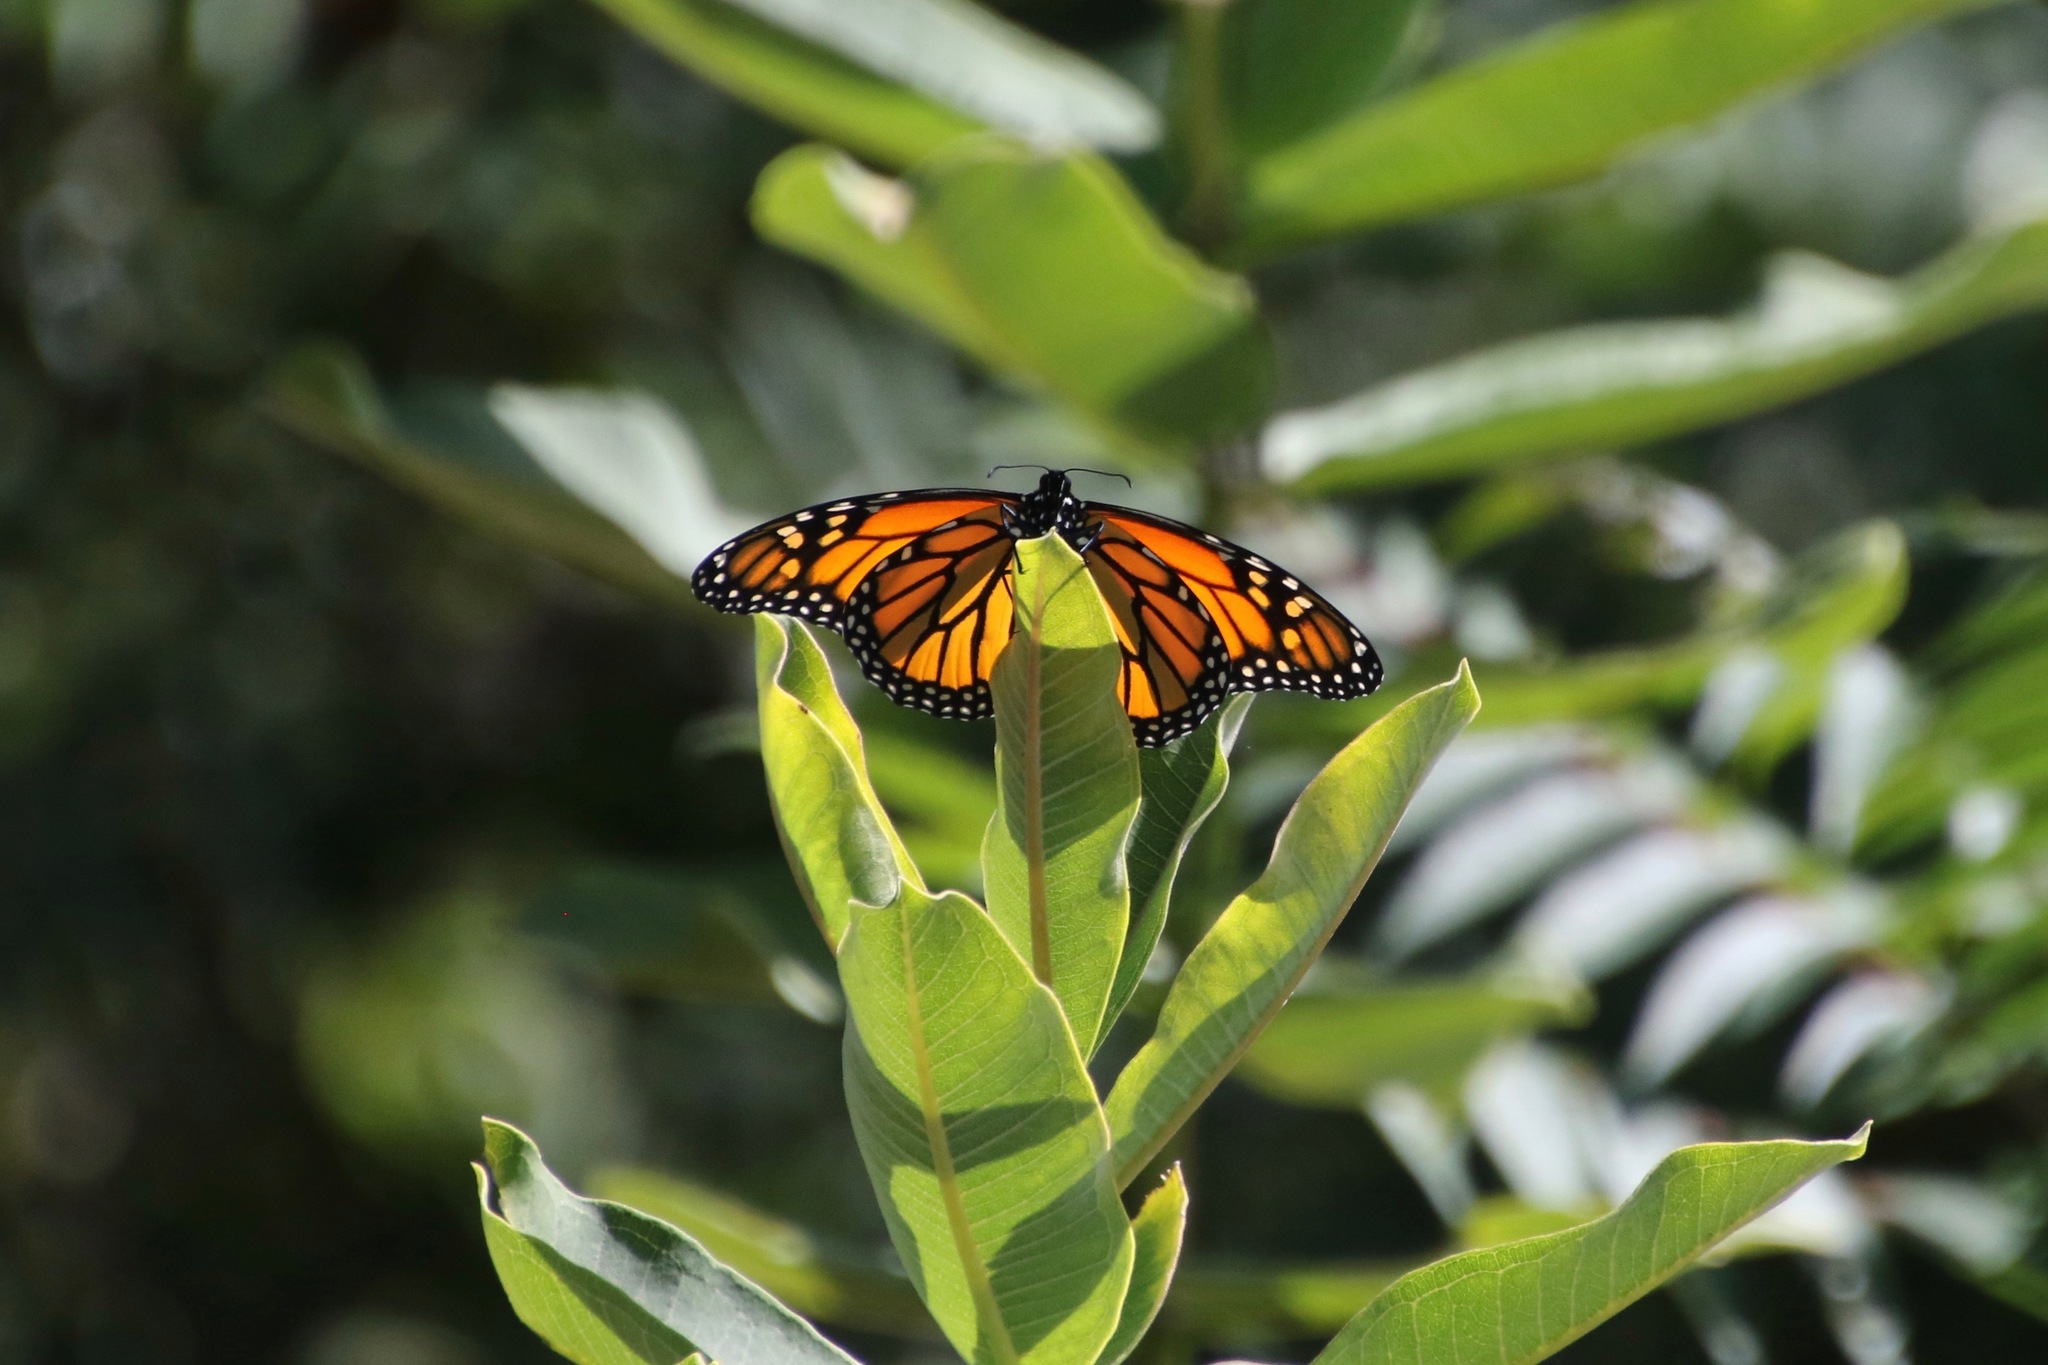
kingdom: Animalia
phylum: Arthropoda
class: Insecta
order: Lepidoptera
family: Nymphalidae
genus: Danaus
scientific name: Danaus plexippus
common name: Monarch
